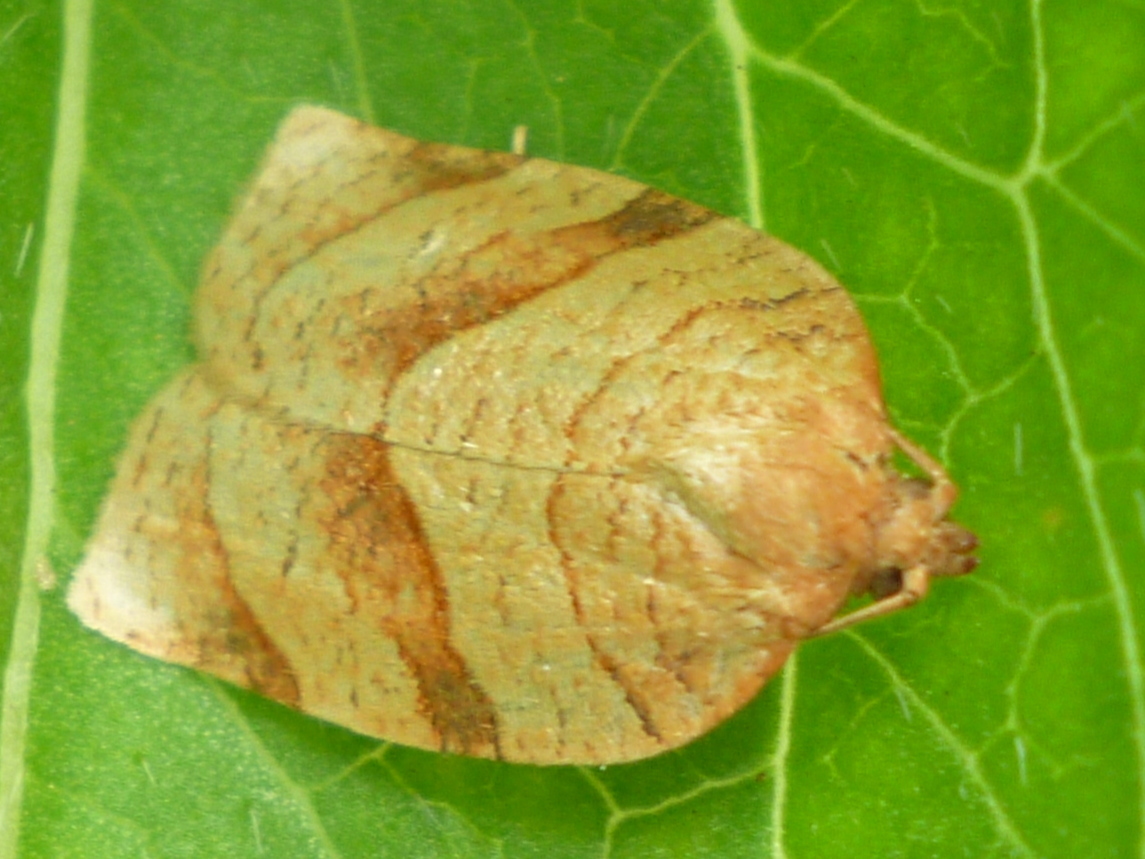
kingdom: Animalia
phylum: Arthropoda
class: Insecta
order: Lepidoptera
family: Tortricidae
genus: Choristoneura
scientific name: Choristoneura parallela
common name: Parallel-banded leafroller moth
